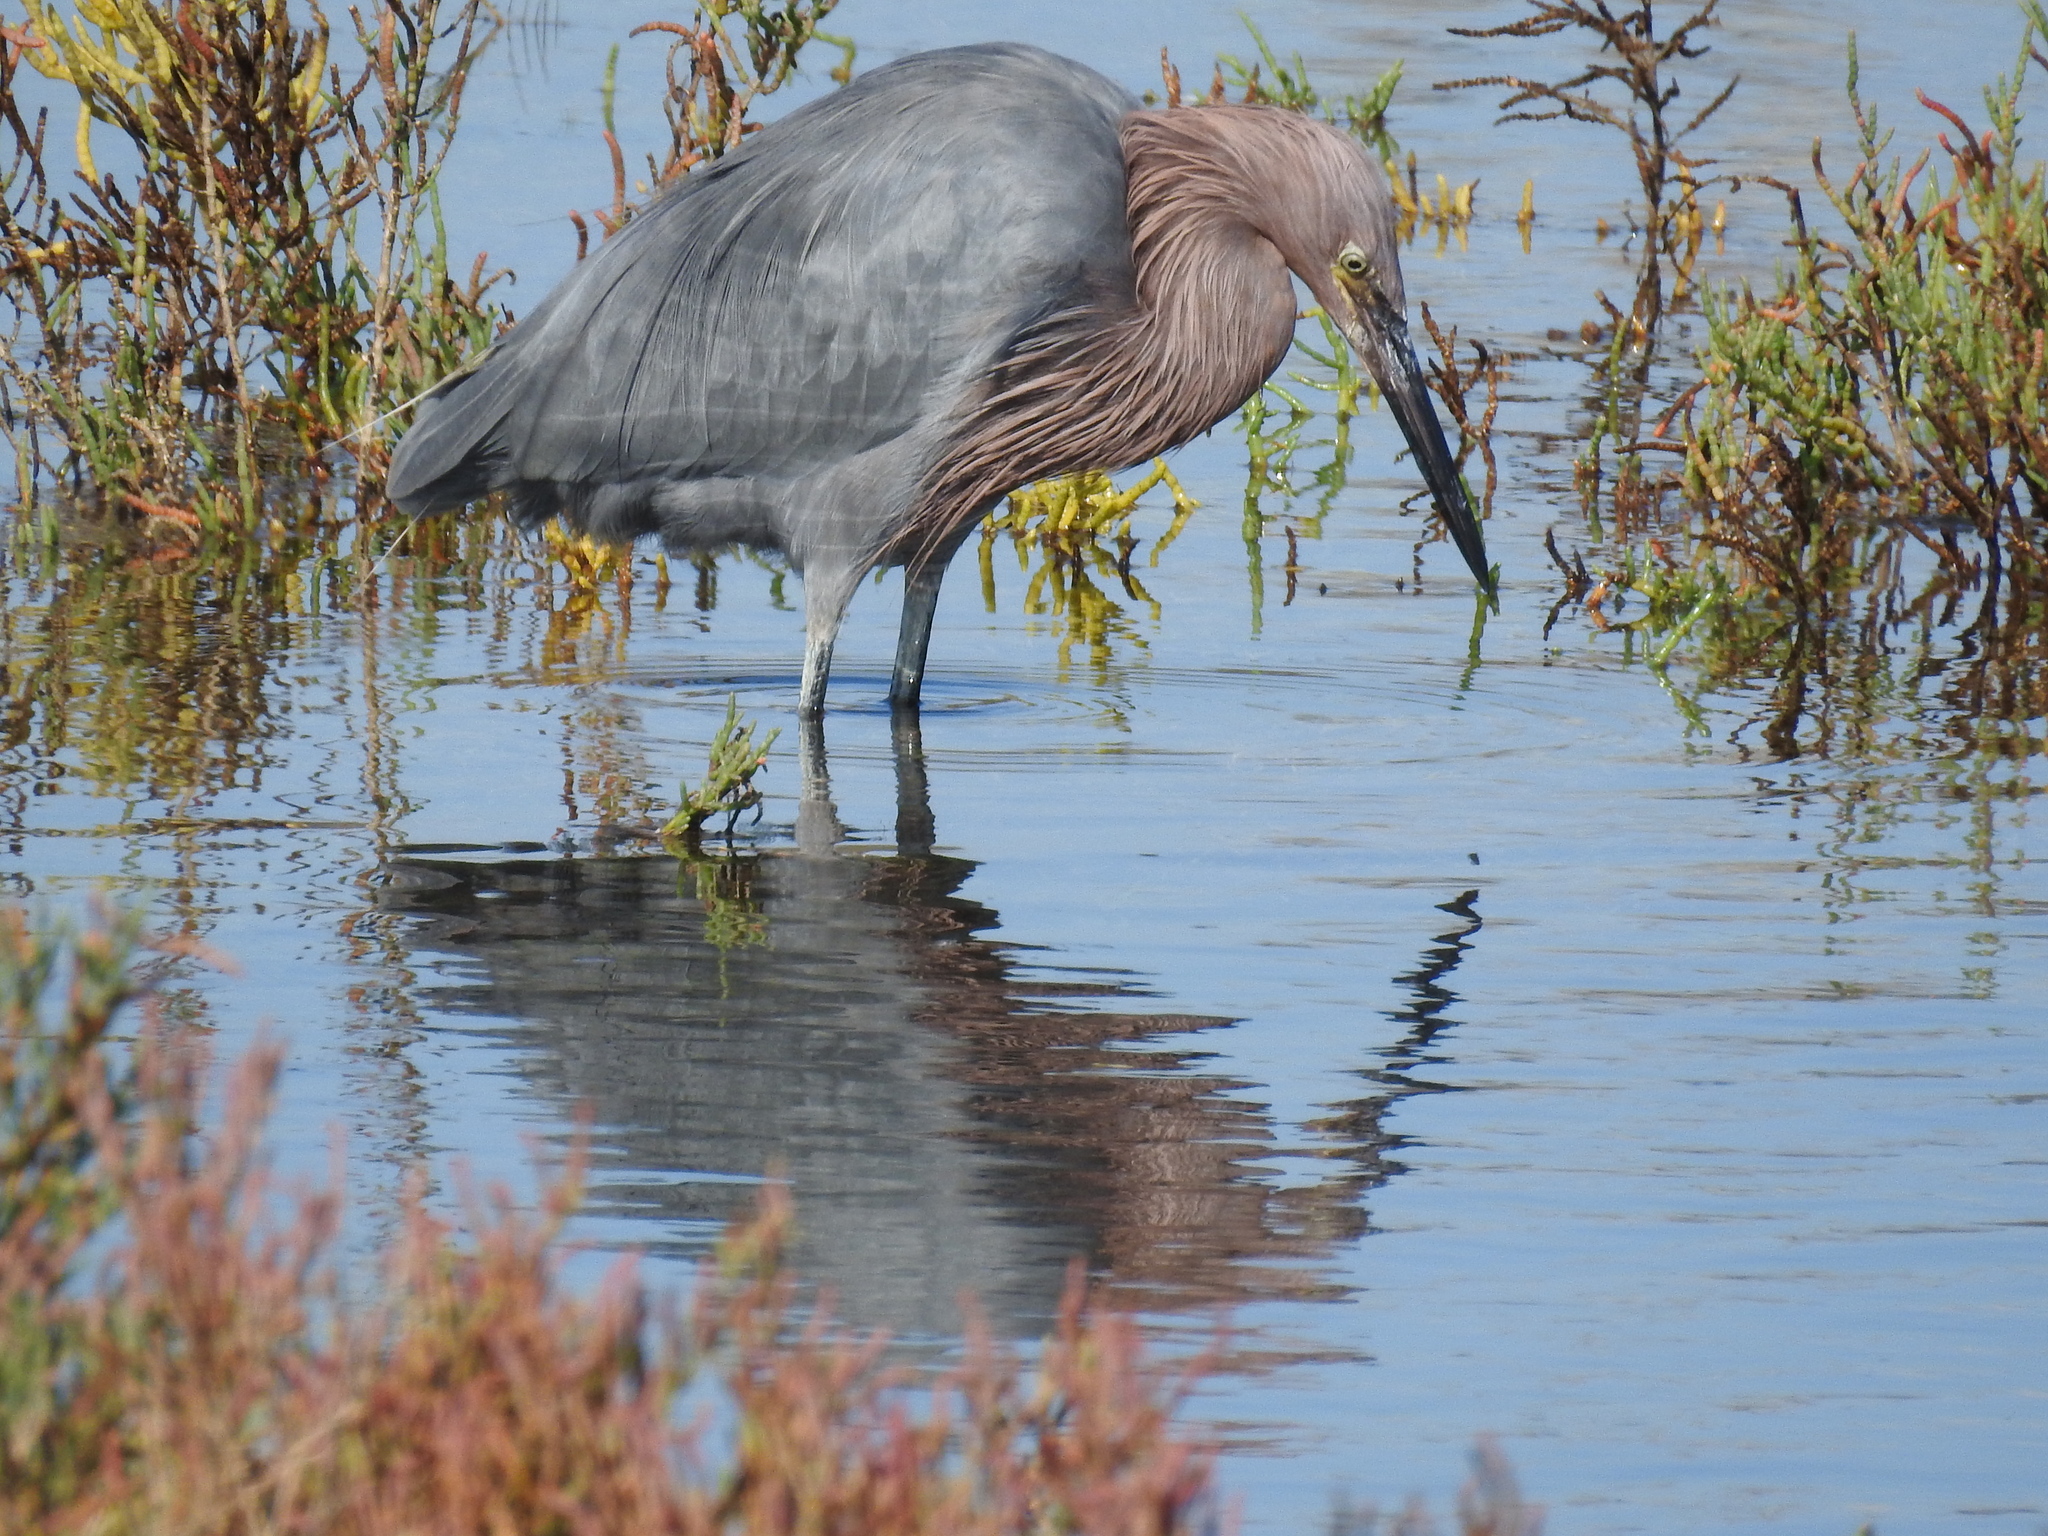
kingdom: Animalia
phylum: Chordata
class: Aves
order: Pelecaniformes
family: Ardeidae
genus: Egretta
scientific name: Egretta rufescens
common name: Reddish egret
